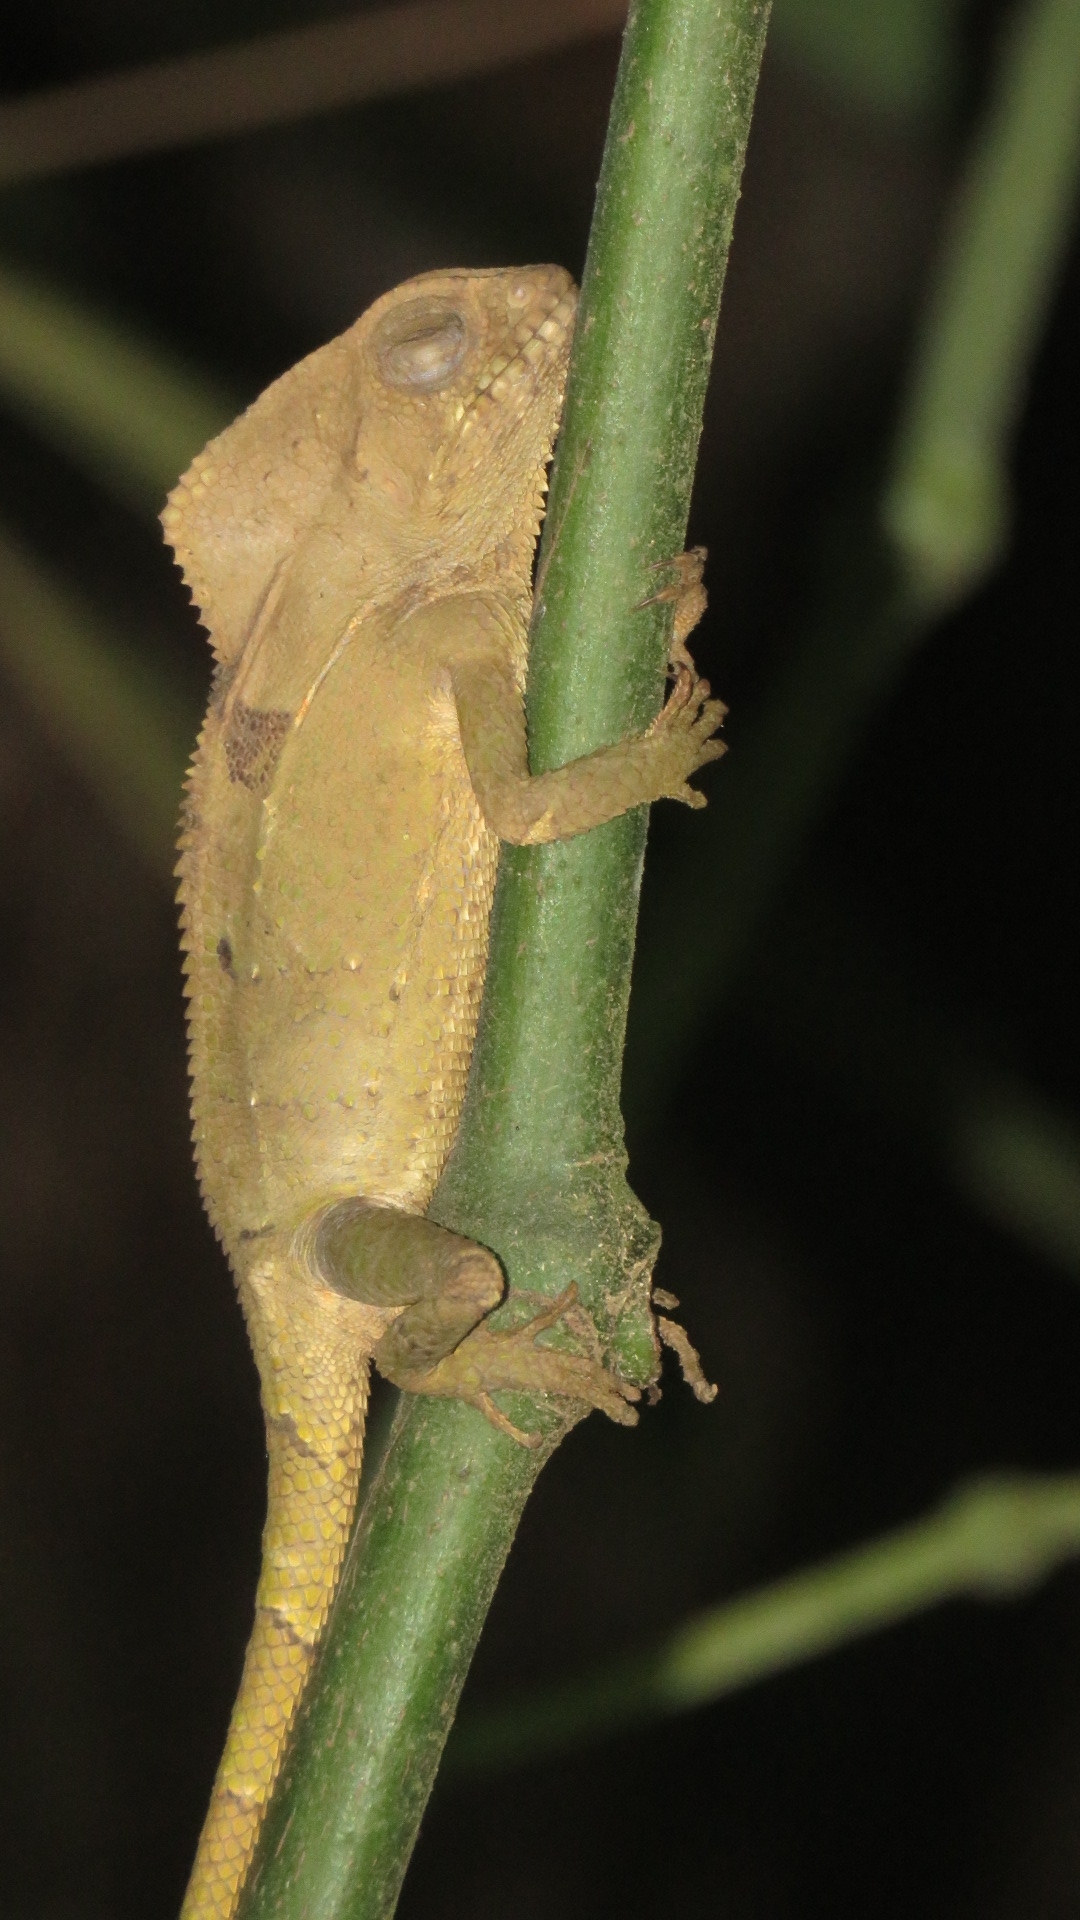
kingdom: Animalia
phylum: Chordata
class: Squamata
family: Corytophanidae
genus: Corytophanes
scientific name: Corytophanes cristatus
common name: Smooth helmeted iguana
